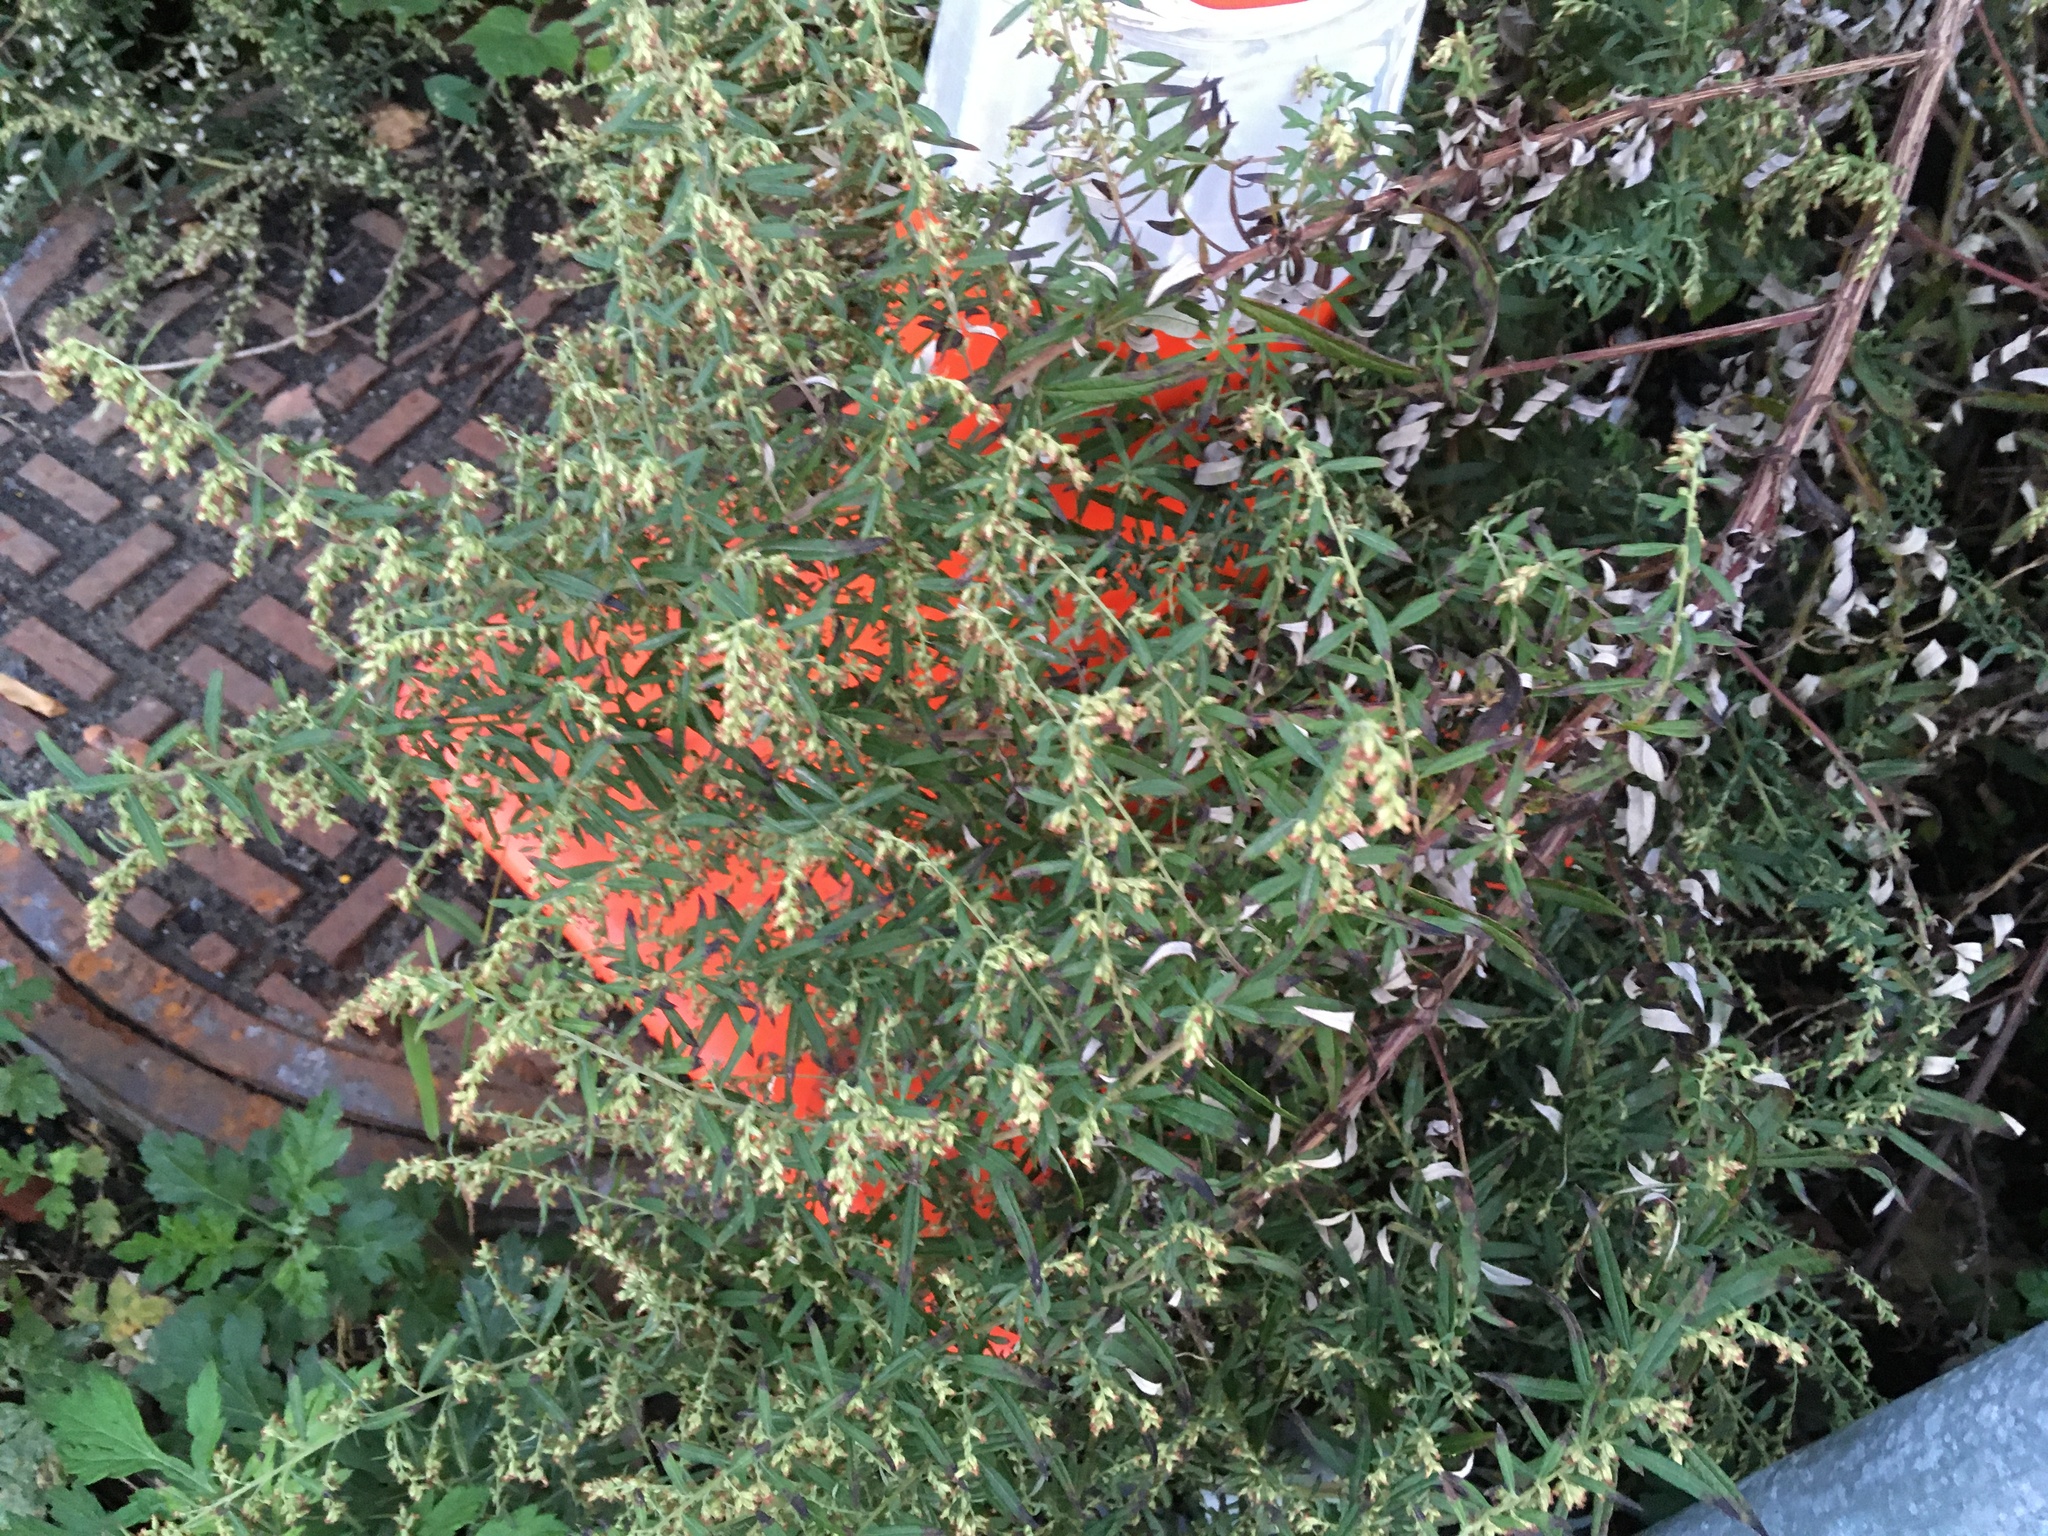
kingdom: Plantae
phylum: Tracheophyta
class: Magnoliopsida
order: Asterales
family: Asteraceae
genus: Artemisia
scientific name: Artemisia vulgaris
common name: Mugwort
